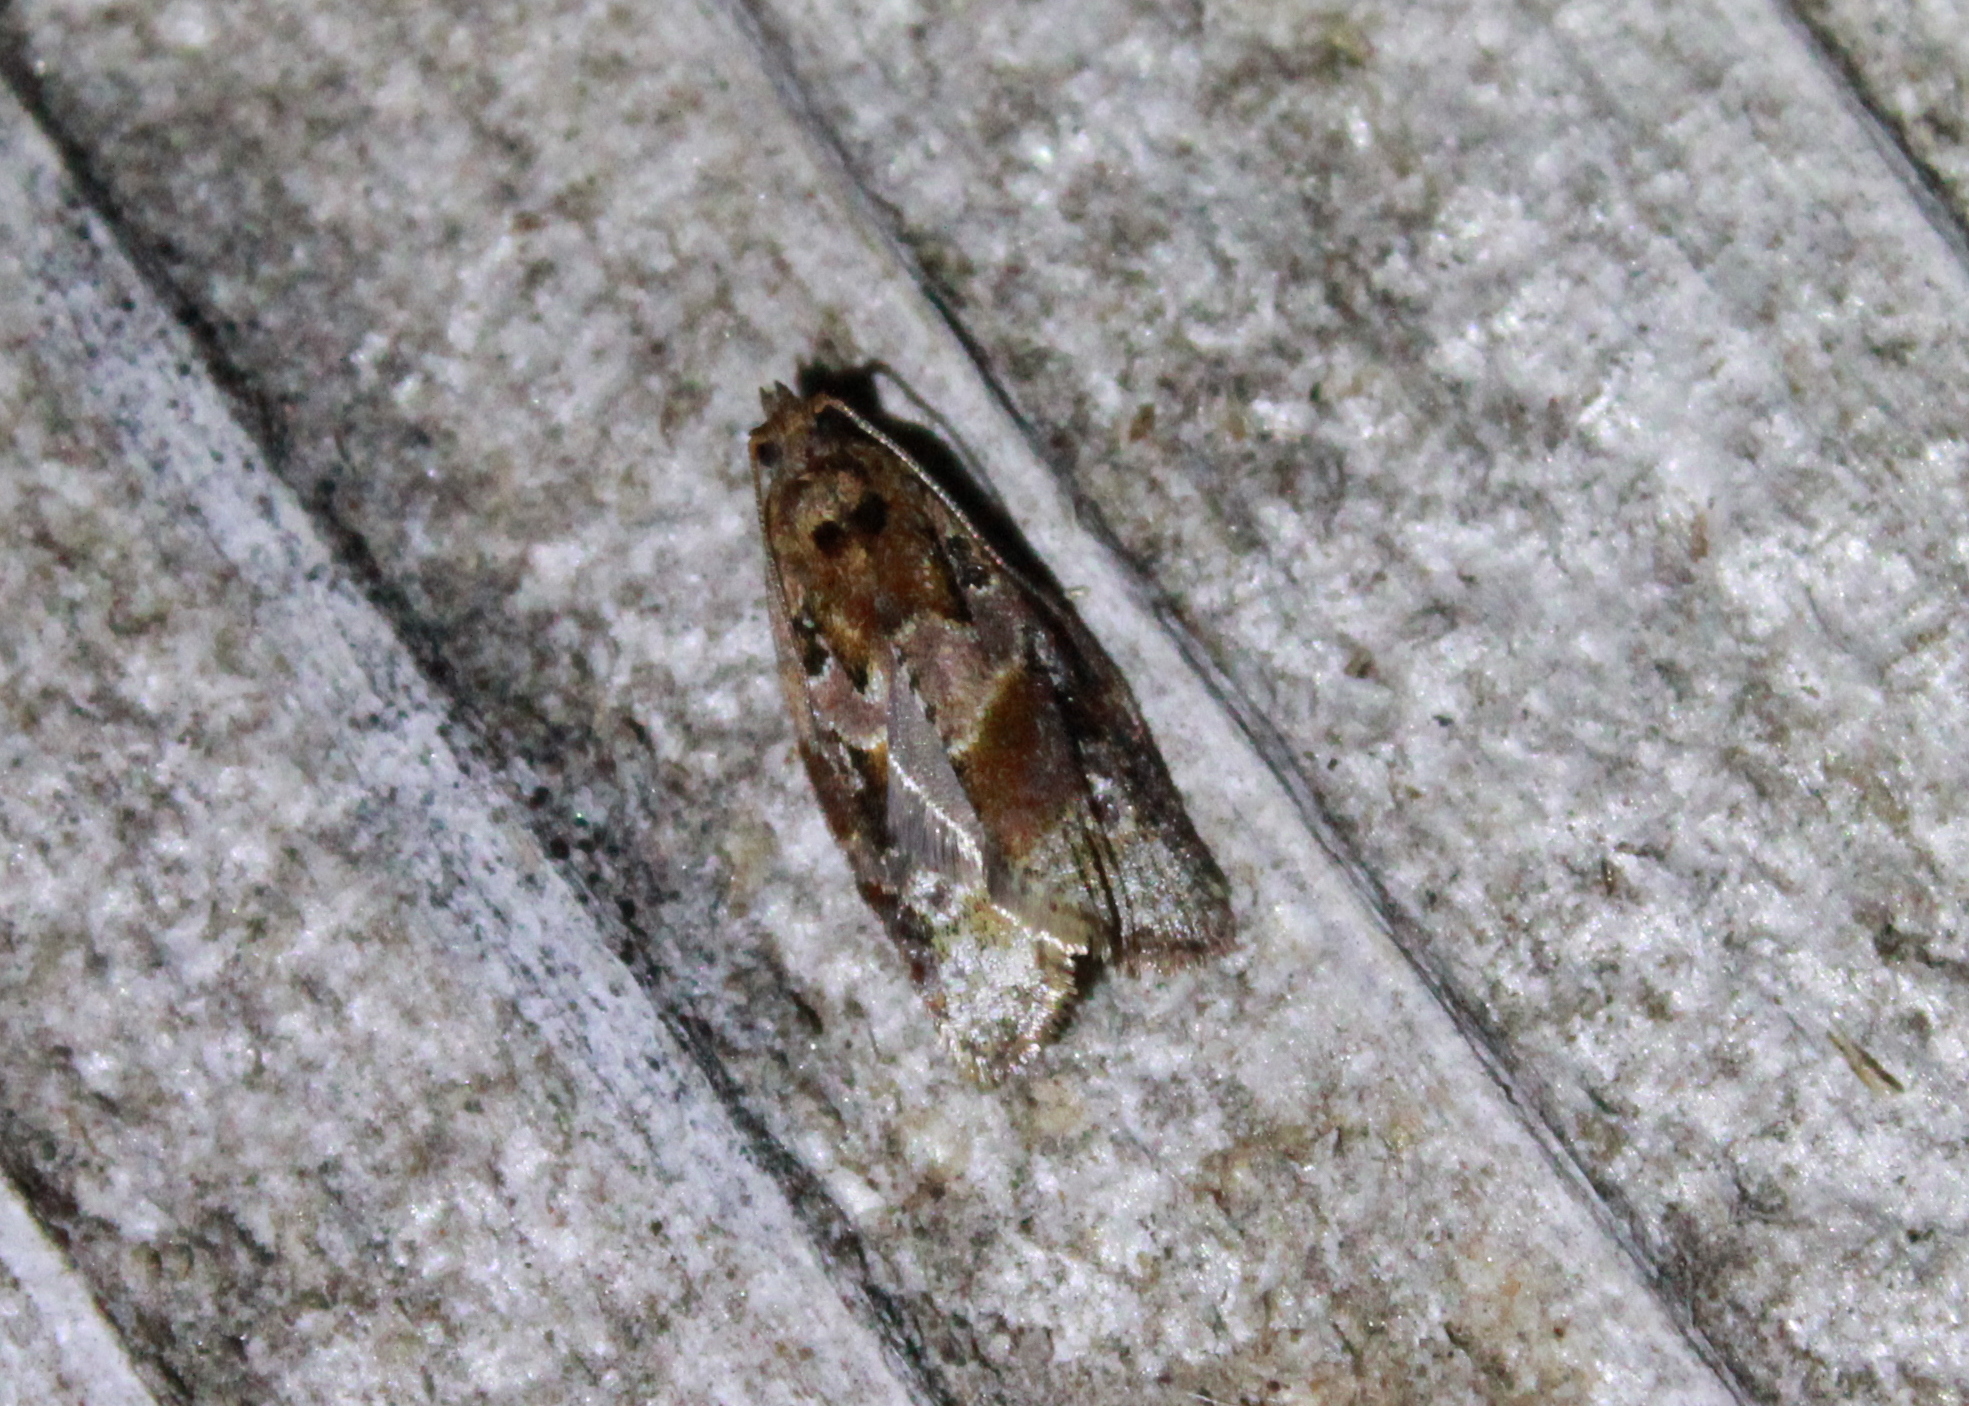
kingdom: Animalia
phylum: Arthropoda
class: Insecta
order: Lepidoptera
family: Tortricidae
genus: Argyrotaenia
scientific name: Argyrotaenia velutinana
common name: Red-banded leafroller moth
